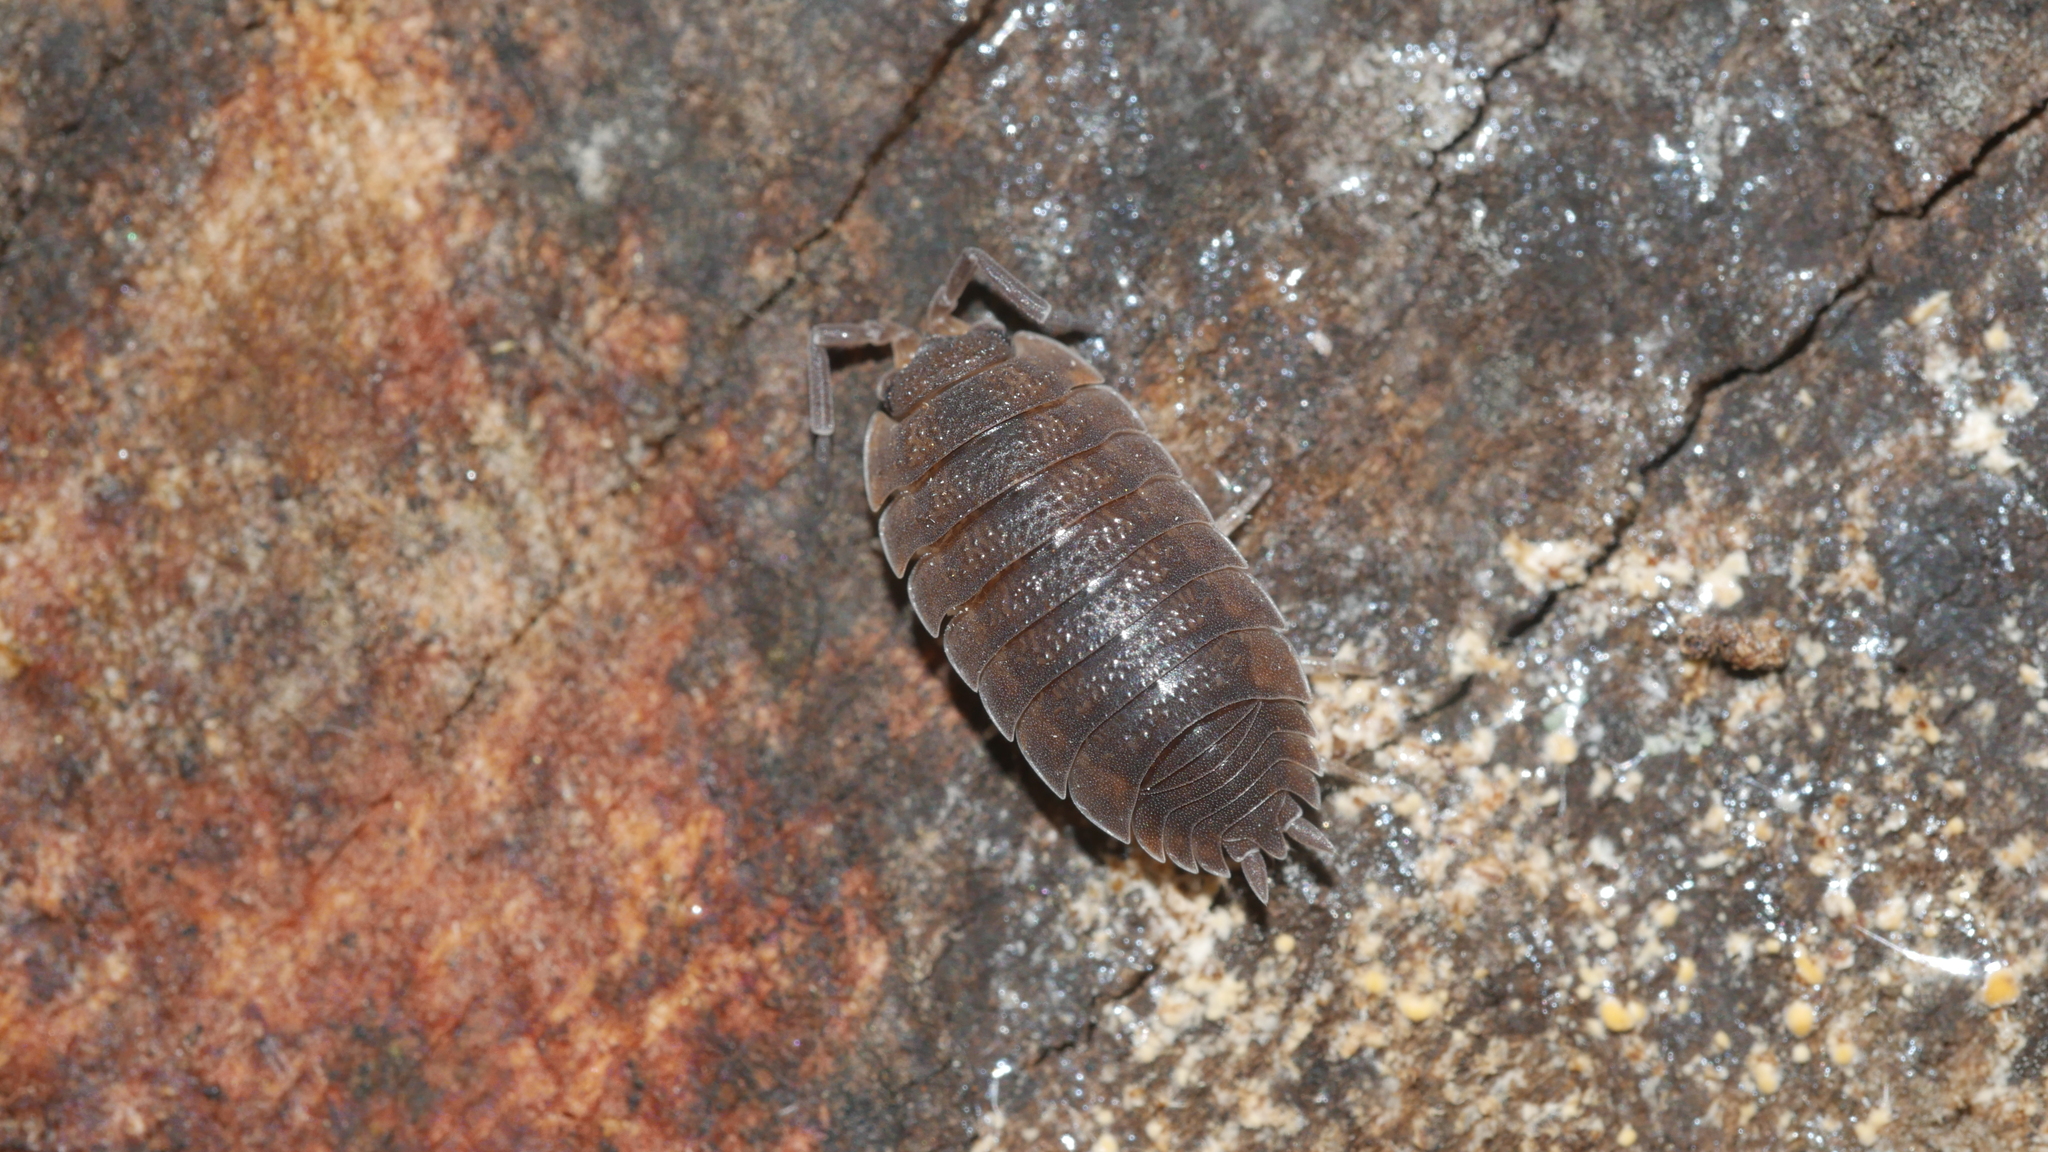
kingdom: Animalia
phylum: Arthropoda
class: Malacostraca
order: Isopoda
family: Porcellionidae
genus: Porcellio
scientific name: Porcellio scaber
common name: Common rough woodlouse
